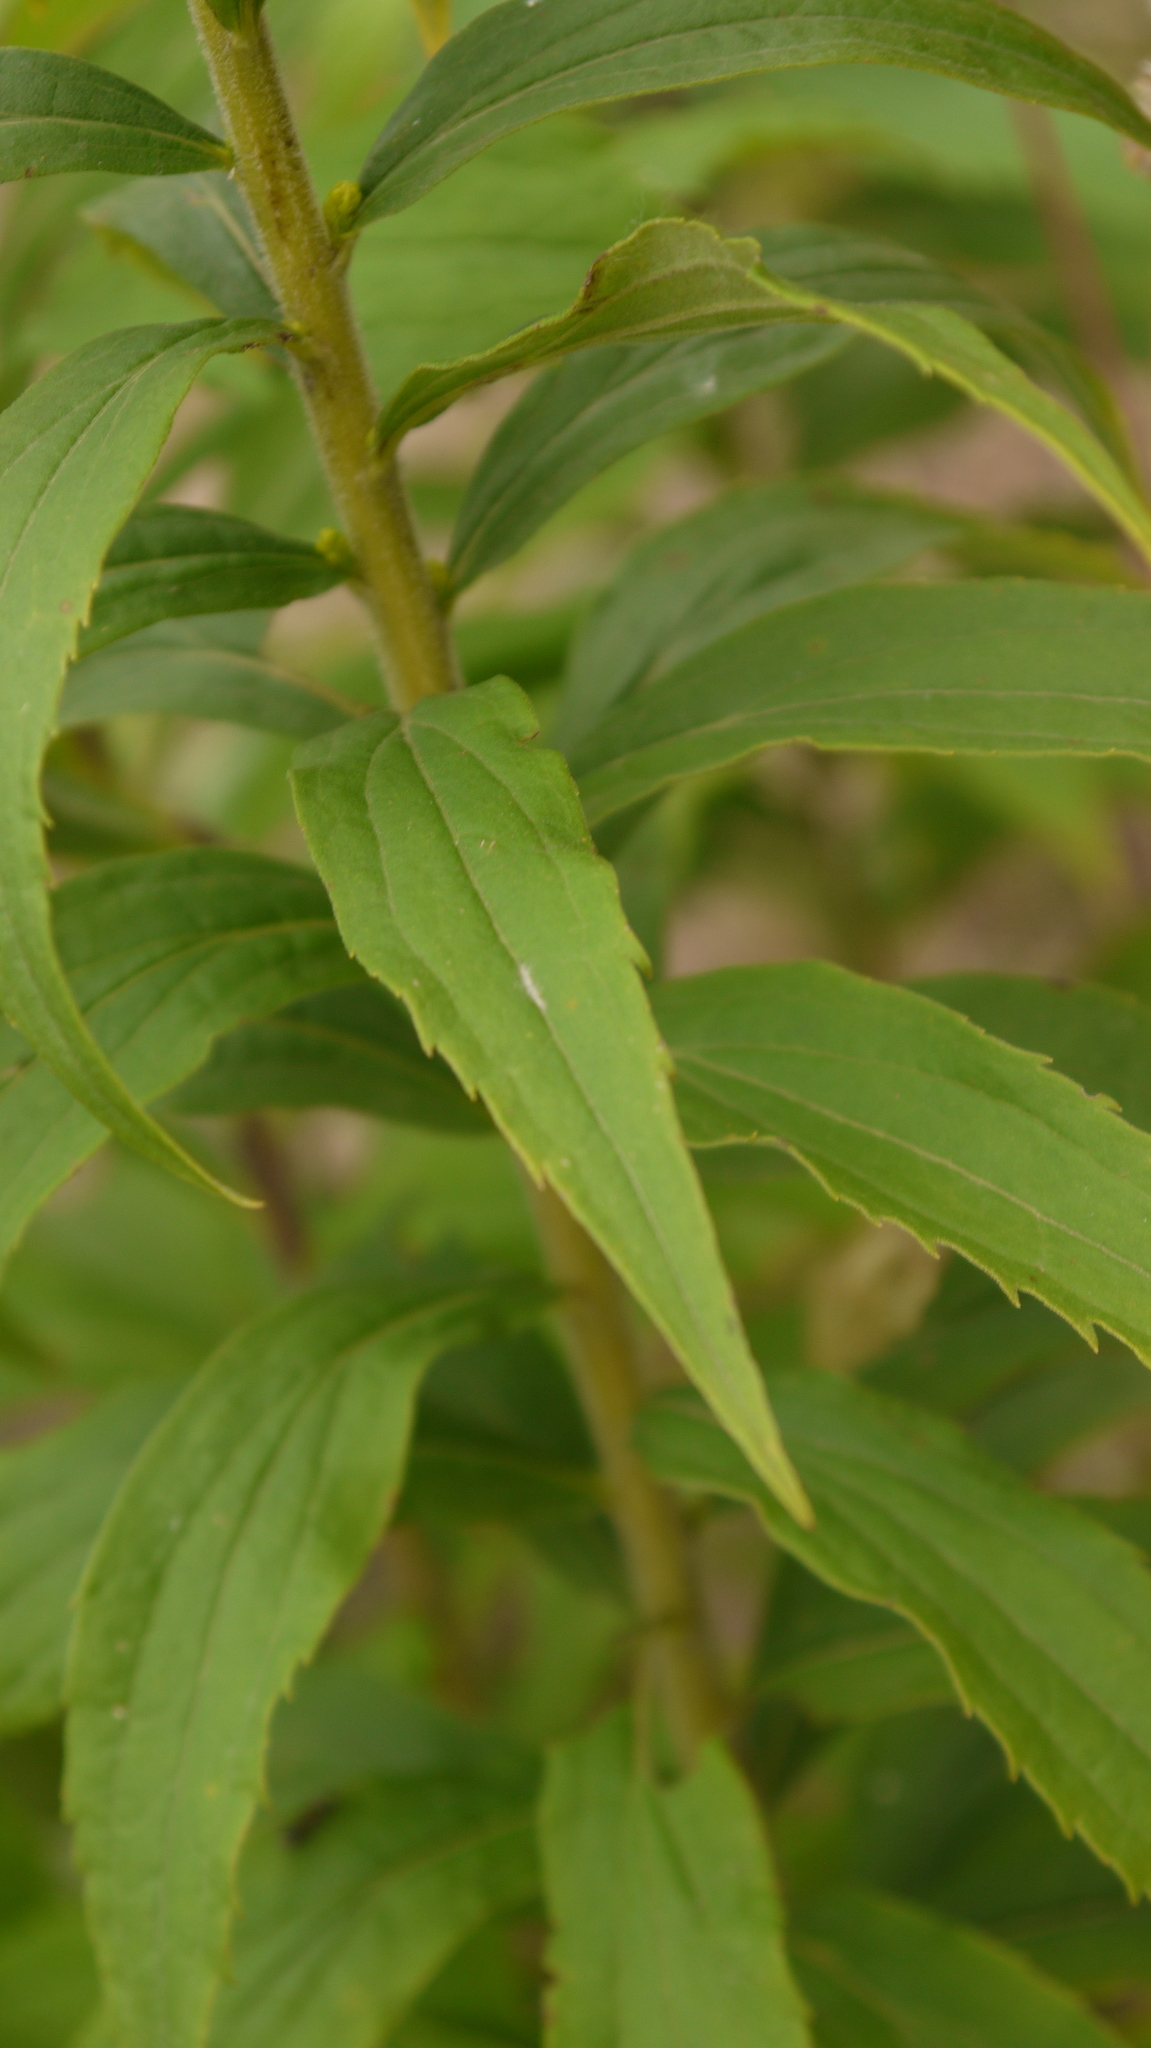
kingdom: Plantae
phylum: Tracheophyta
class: Magnoliopsida
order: Asterales
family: Asteraceae
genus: Solidago
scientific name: Solidago canadensis
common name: Canada goldenrod
